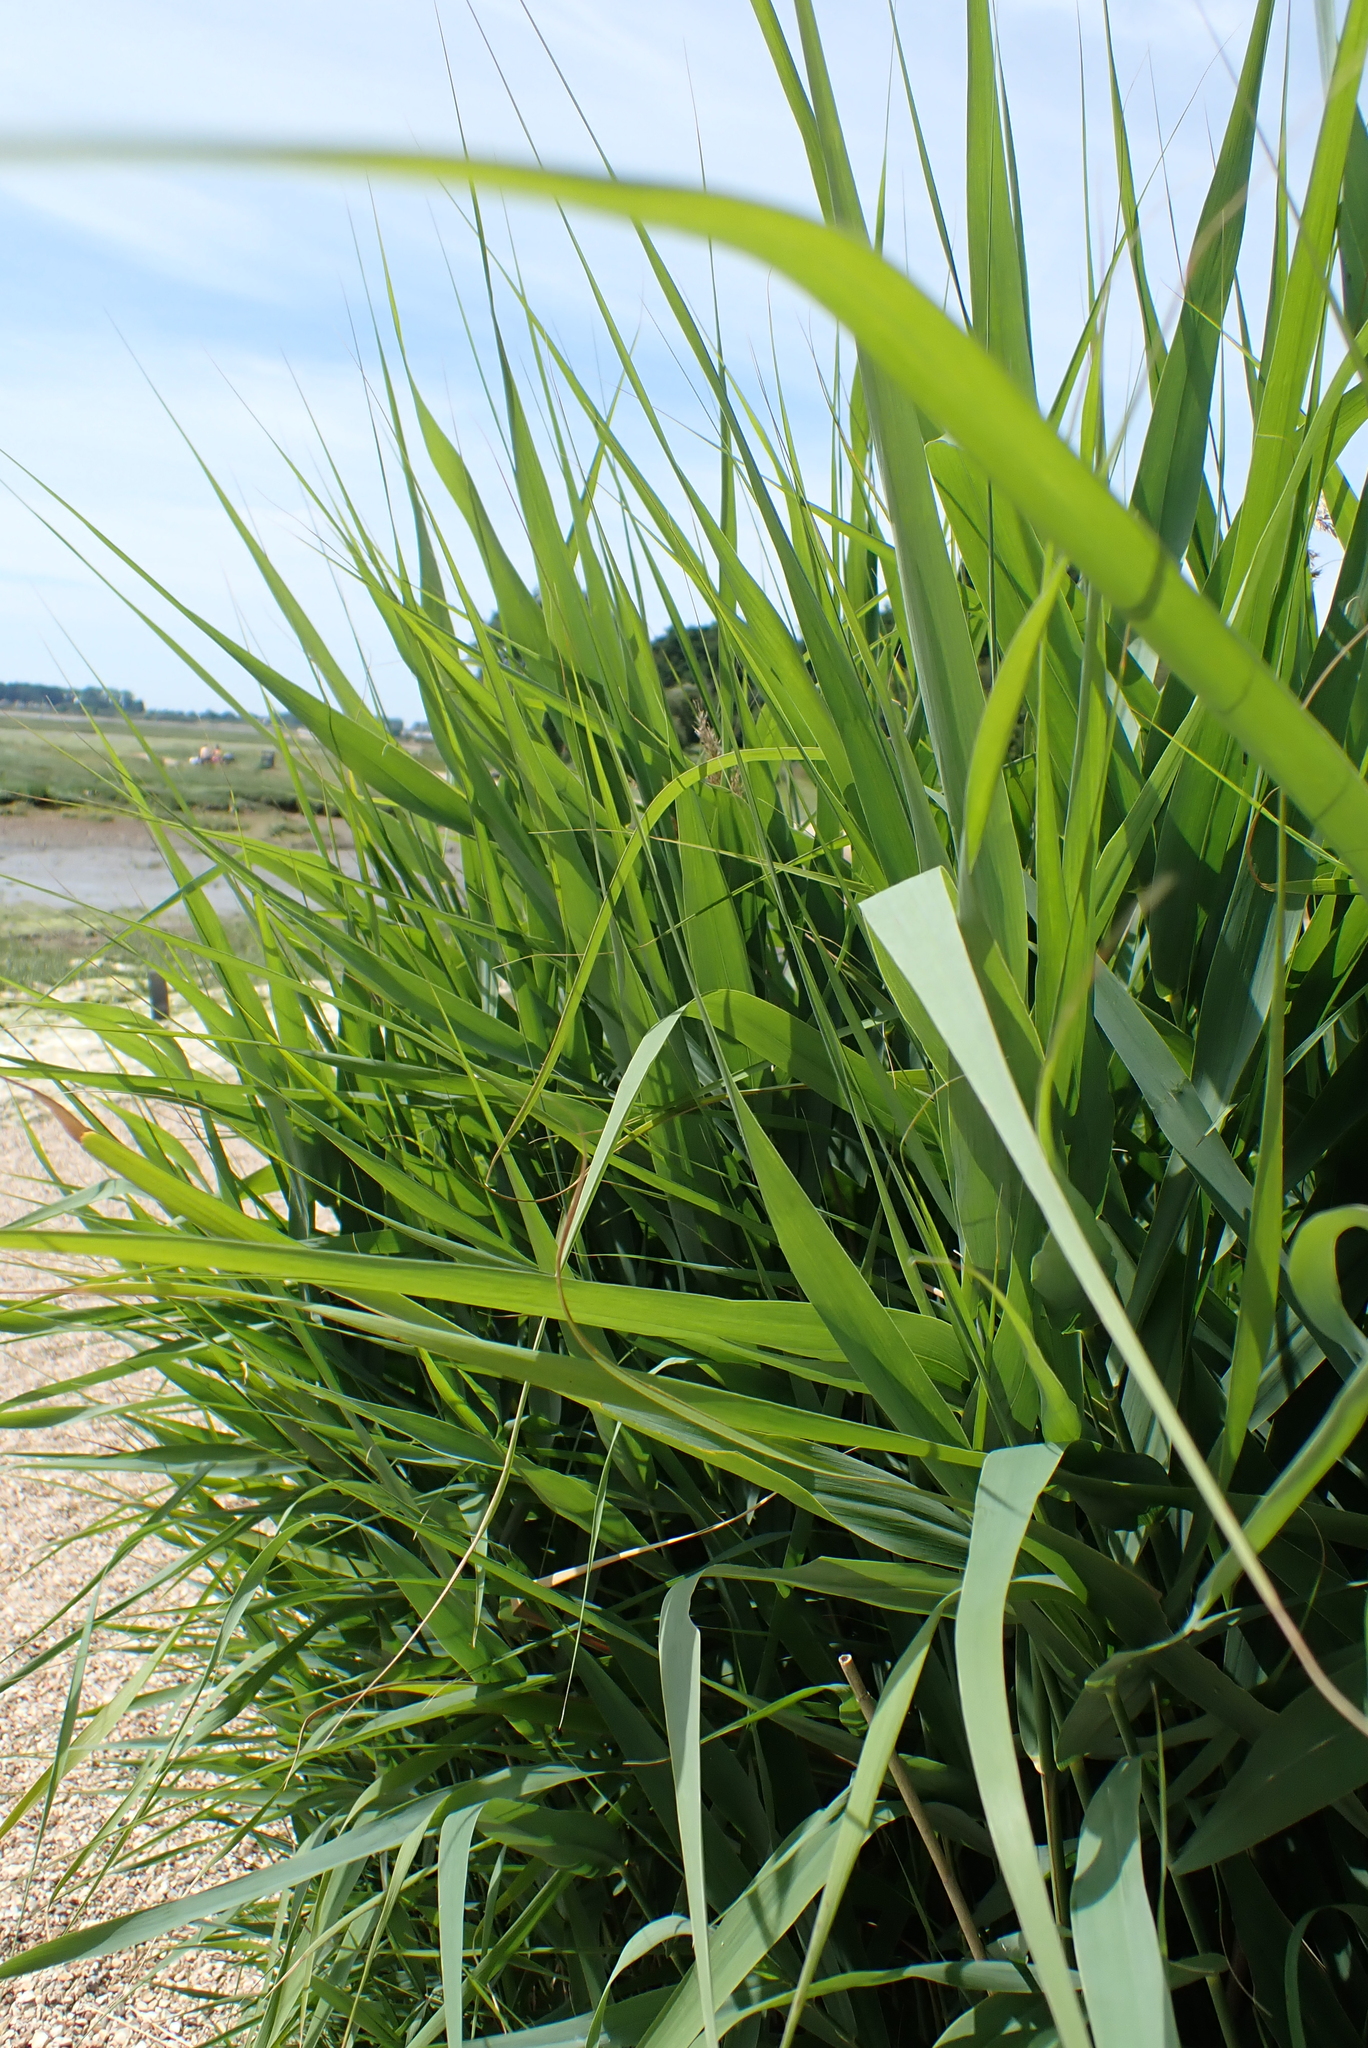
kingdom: Plantae
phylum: Tracheophyta
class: Liliopsida
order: Poales
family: Poaceae
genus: Phragmites
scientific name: Phragmites australis
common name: Common reed
